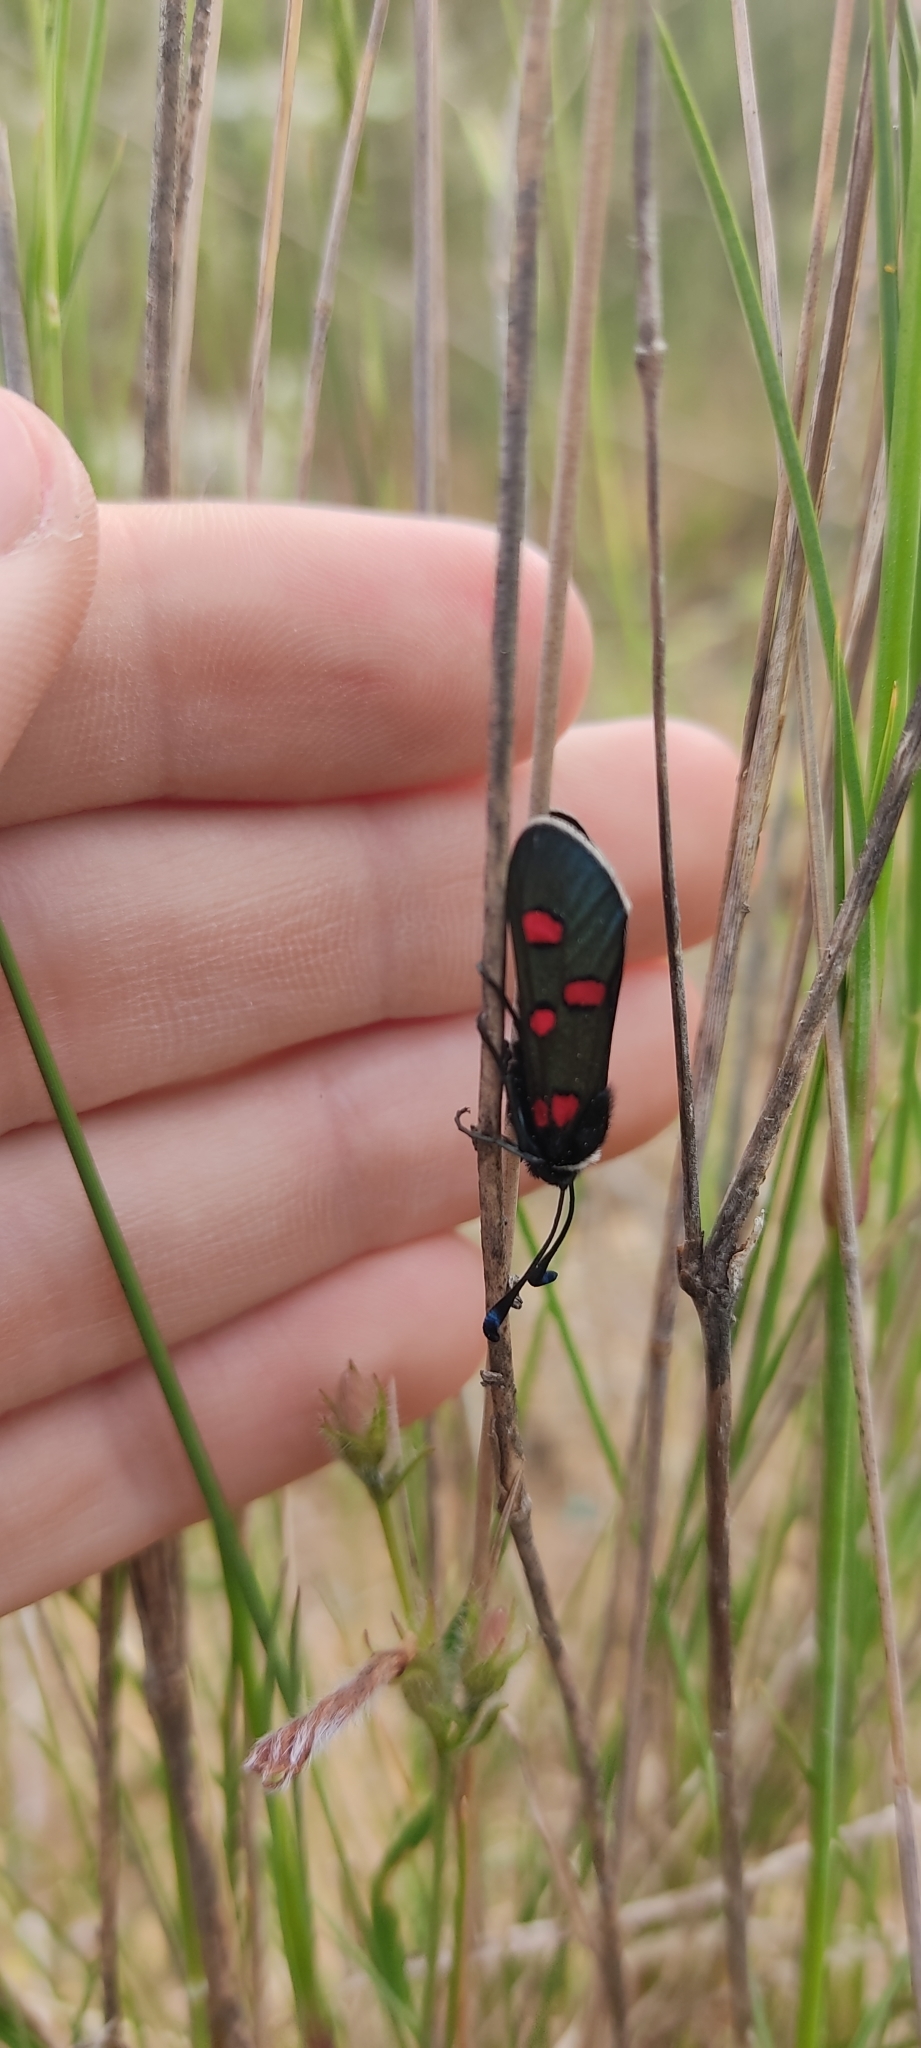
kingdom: Animalia
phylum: Arthropoda
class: Insecta
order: Lepidoptera
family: Zygaenidae
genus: Zygaena
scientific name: Zygaena lavandulae
